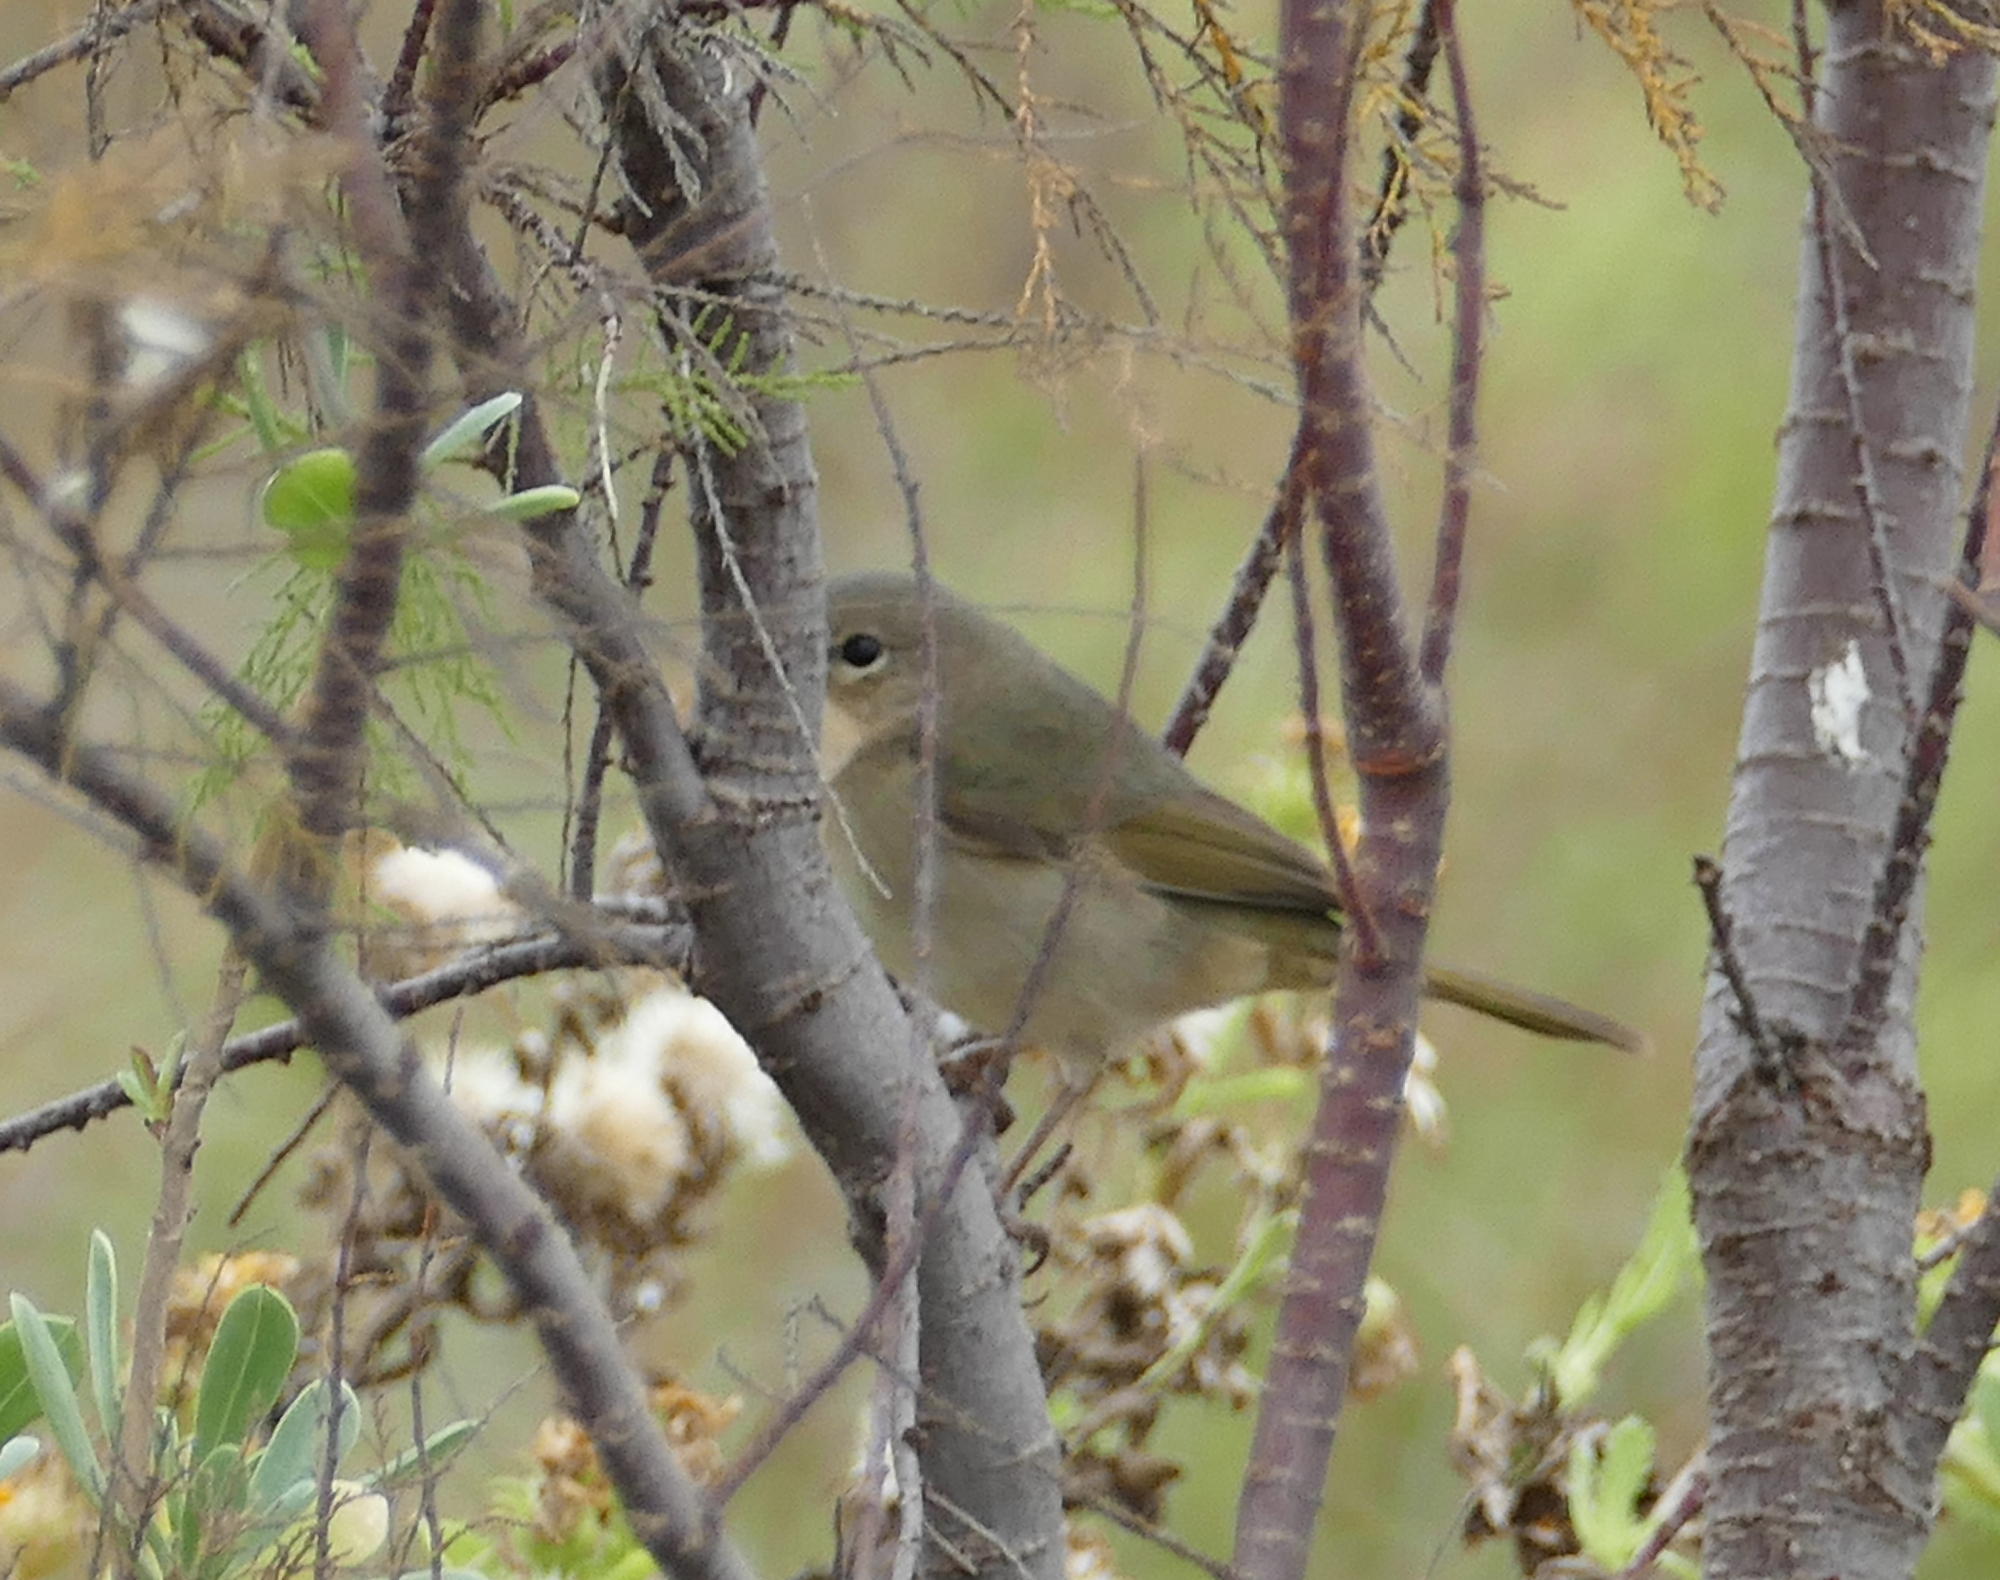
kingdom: Animalia
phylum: Chordata
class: Aves
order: Passeriformes
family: Parulidae
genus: Geothlypis
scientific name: Geothlypis trichas
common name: Common yellowthroat
